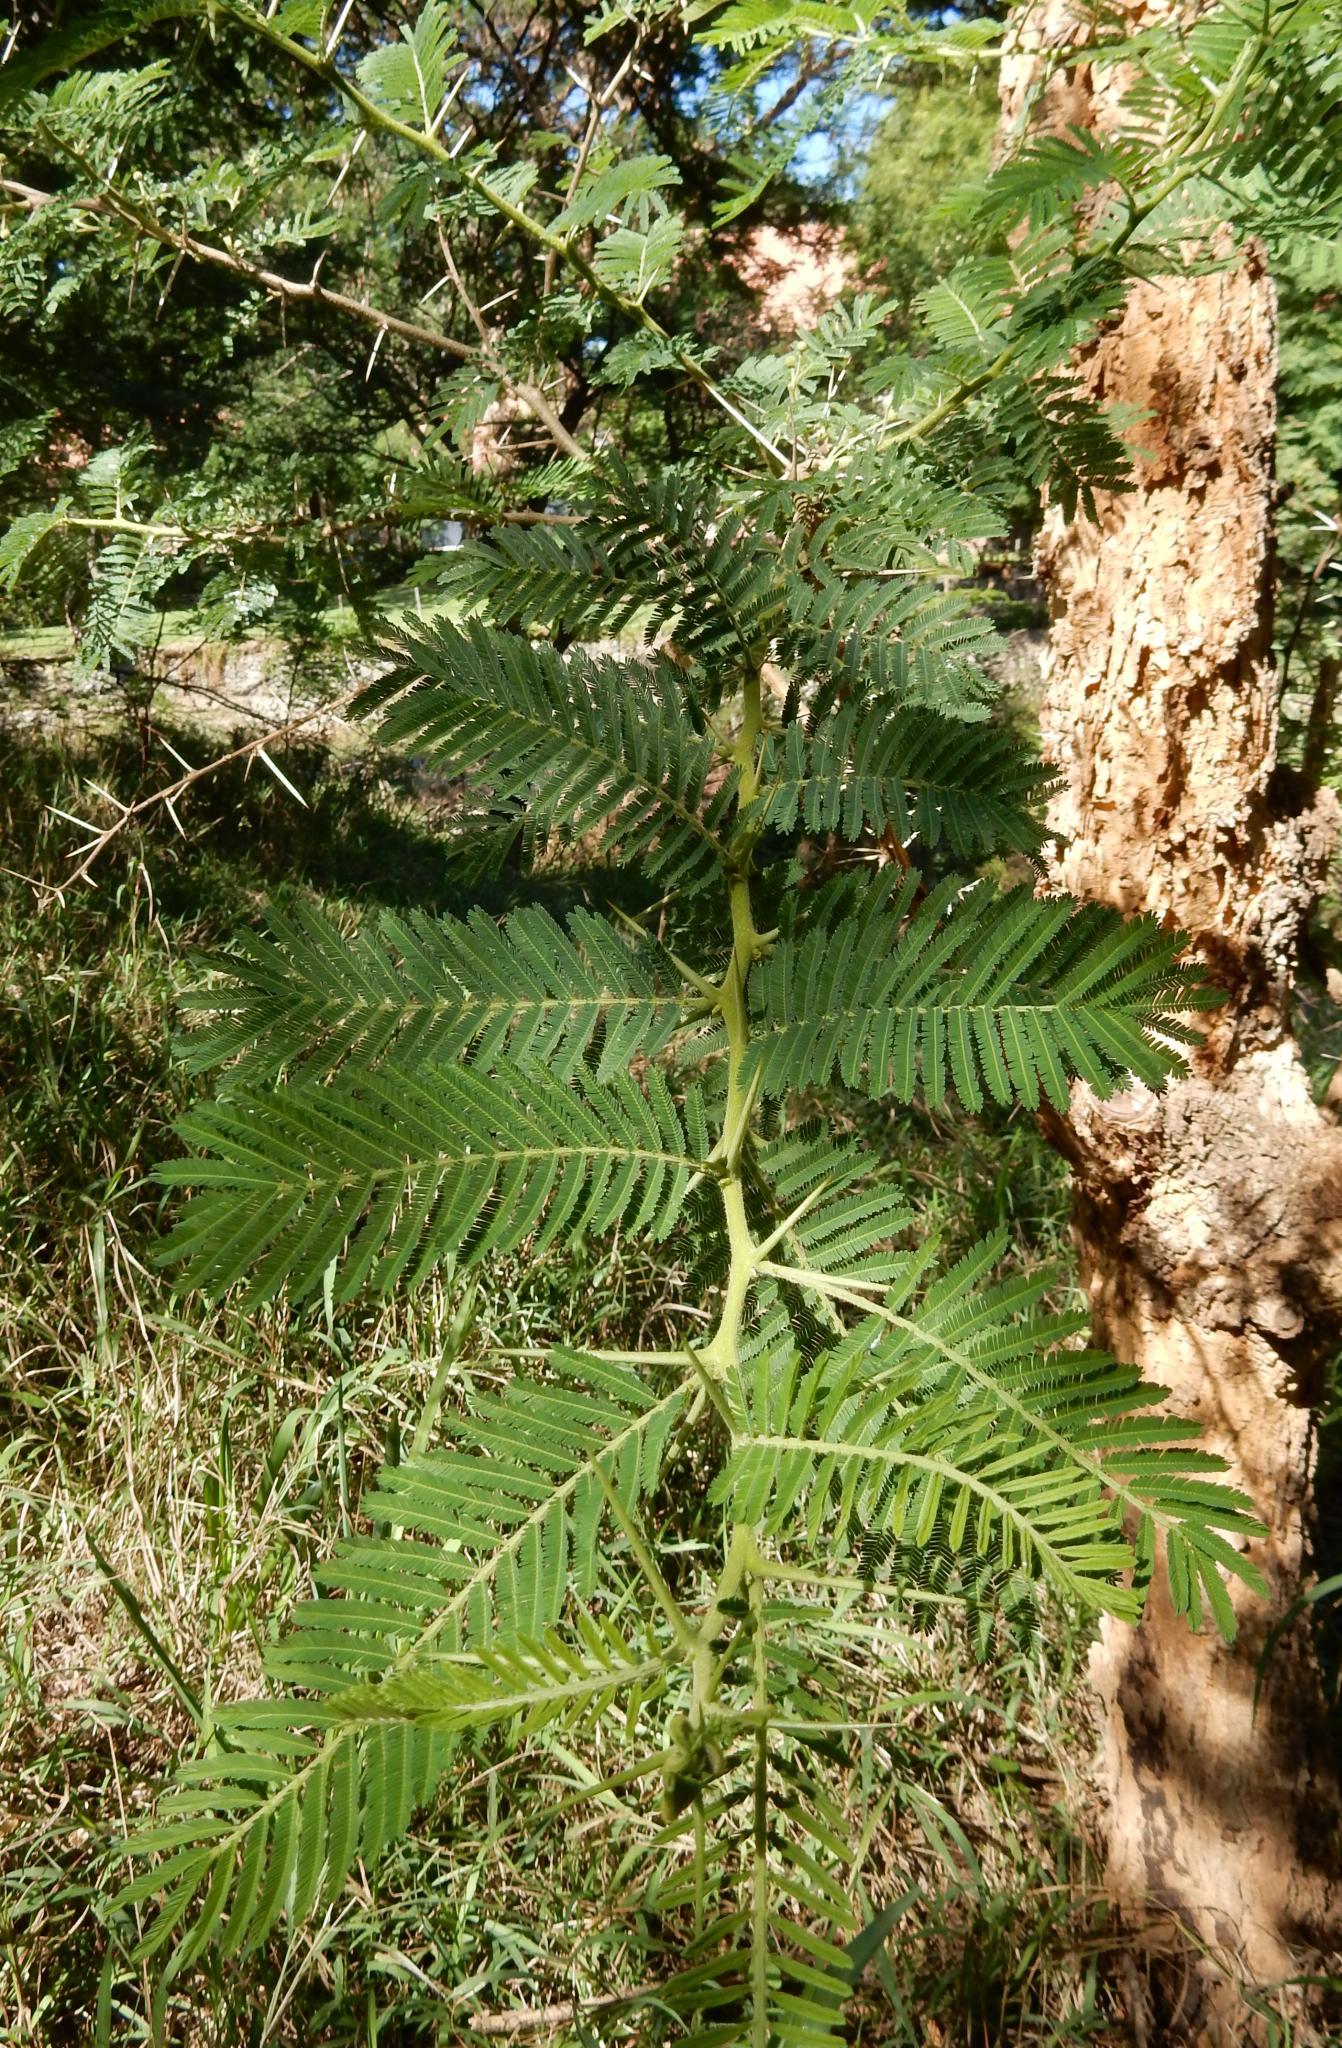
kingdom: Plantae
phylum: Tracheophyta
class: Magnoliopsida
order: Fabales
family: Fabaceae
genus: Vachellia
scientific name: Vachellia sieberiana
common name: Flat-topped thorn
